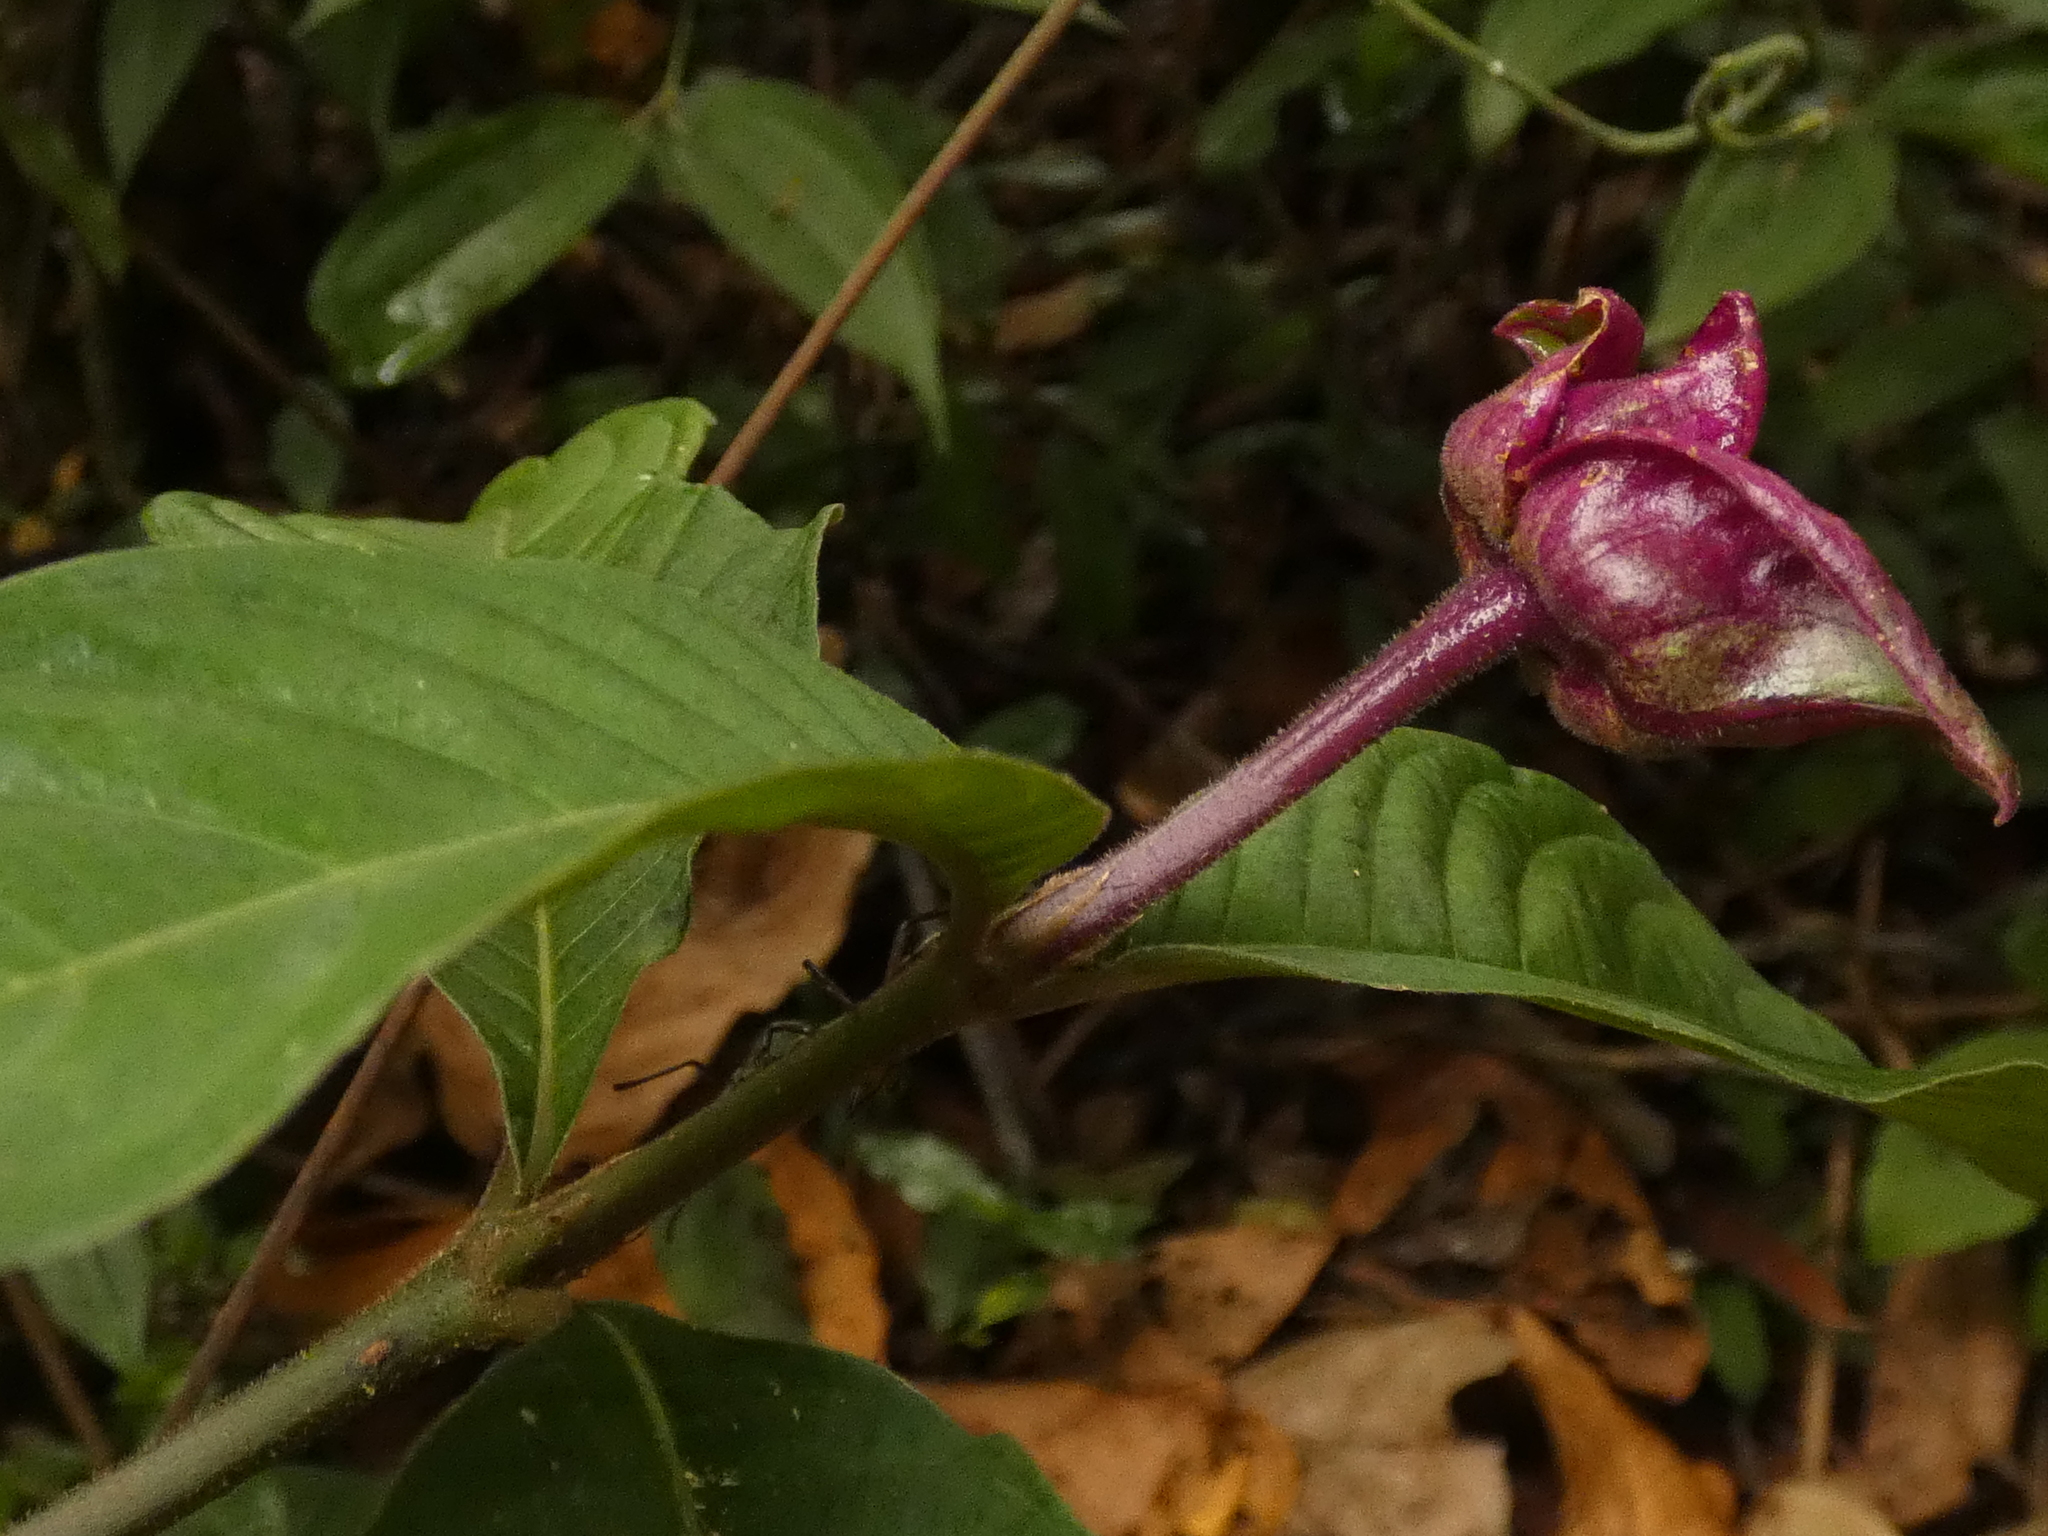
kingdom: Plantae
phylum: Tracheophyta
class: Magnoliopsida
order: Gentianales
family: Rubiaceae
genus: Palicourea
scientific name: Palicourea colorata
